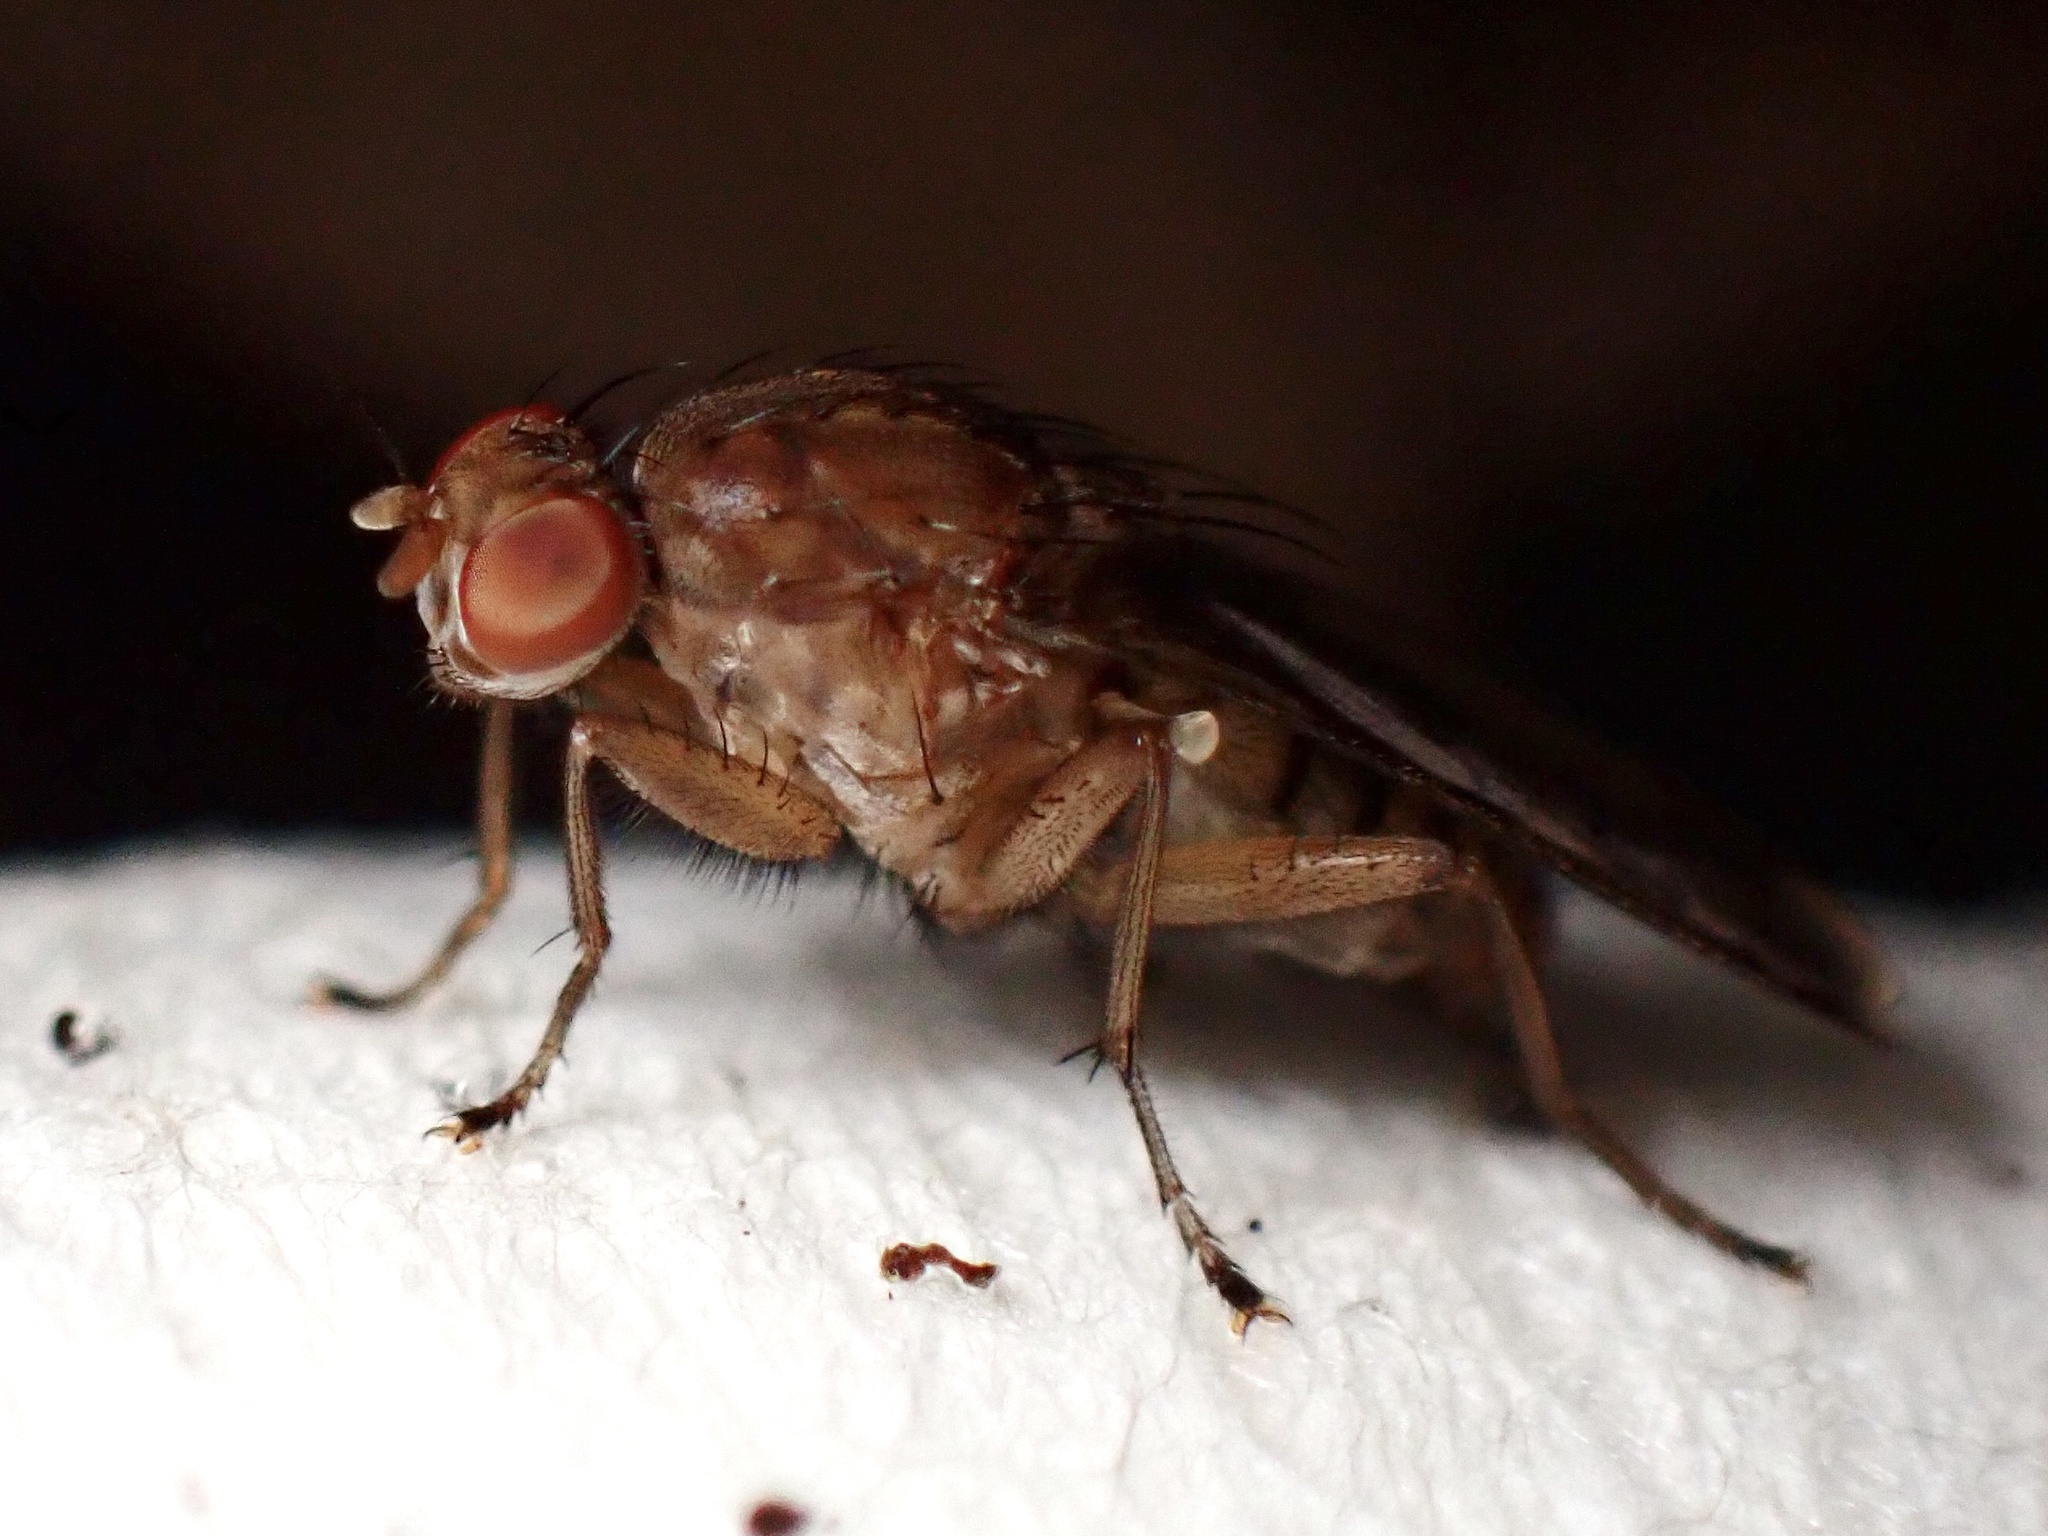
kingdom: Animalia
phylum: Arthropoda
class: Insecta
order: Diptera
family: Heleomyzidae
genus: Suillia
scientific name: Suillia variegata
